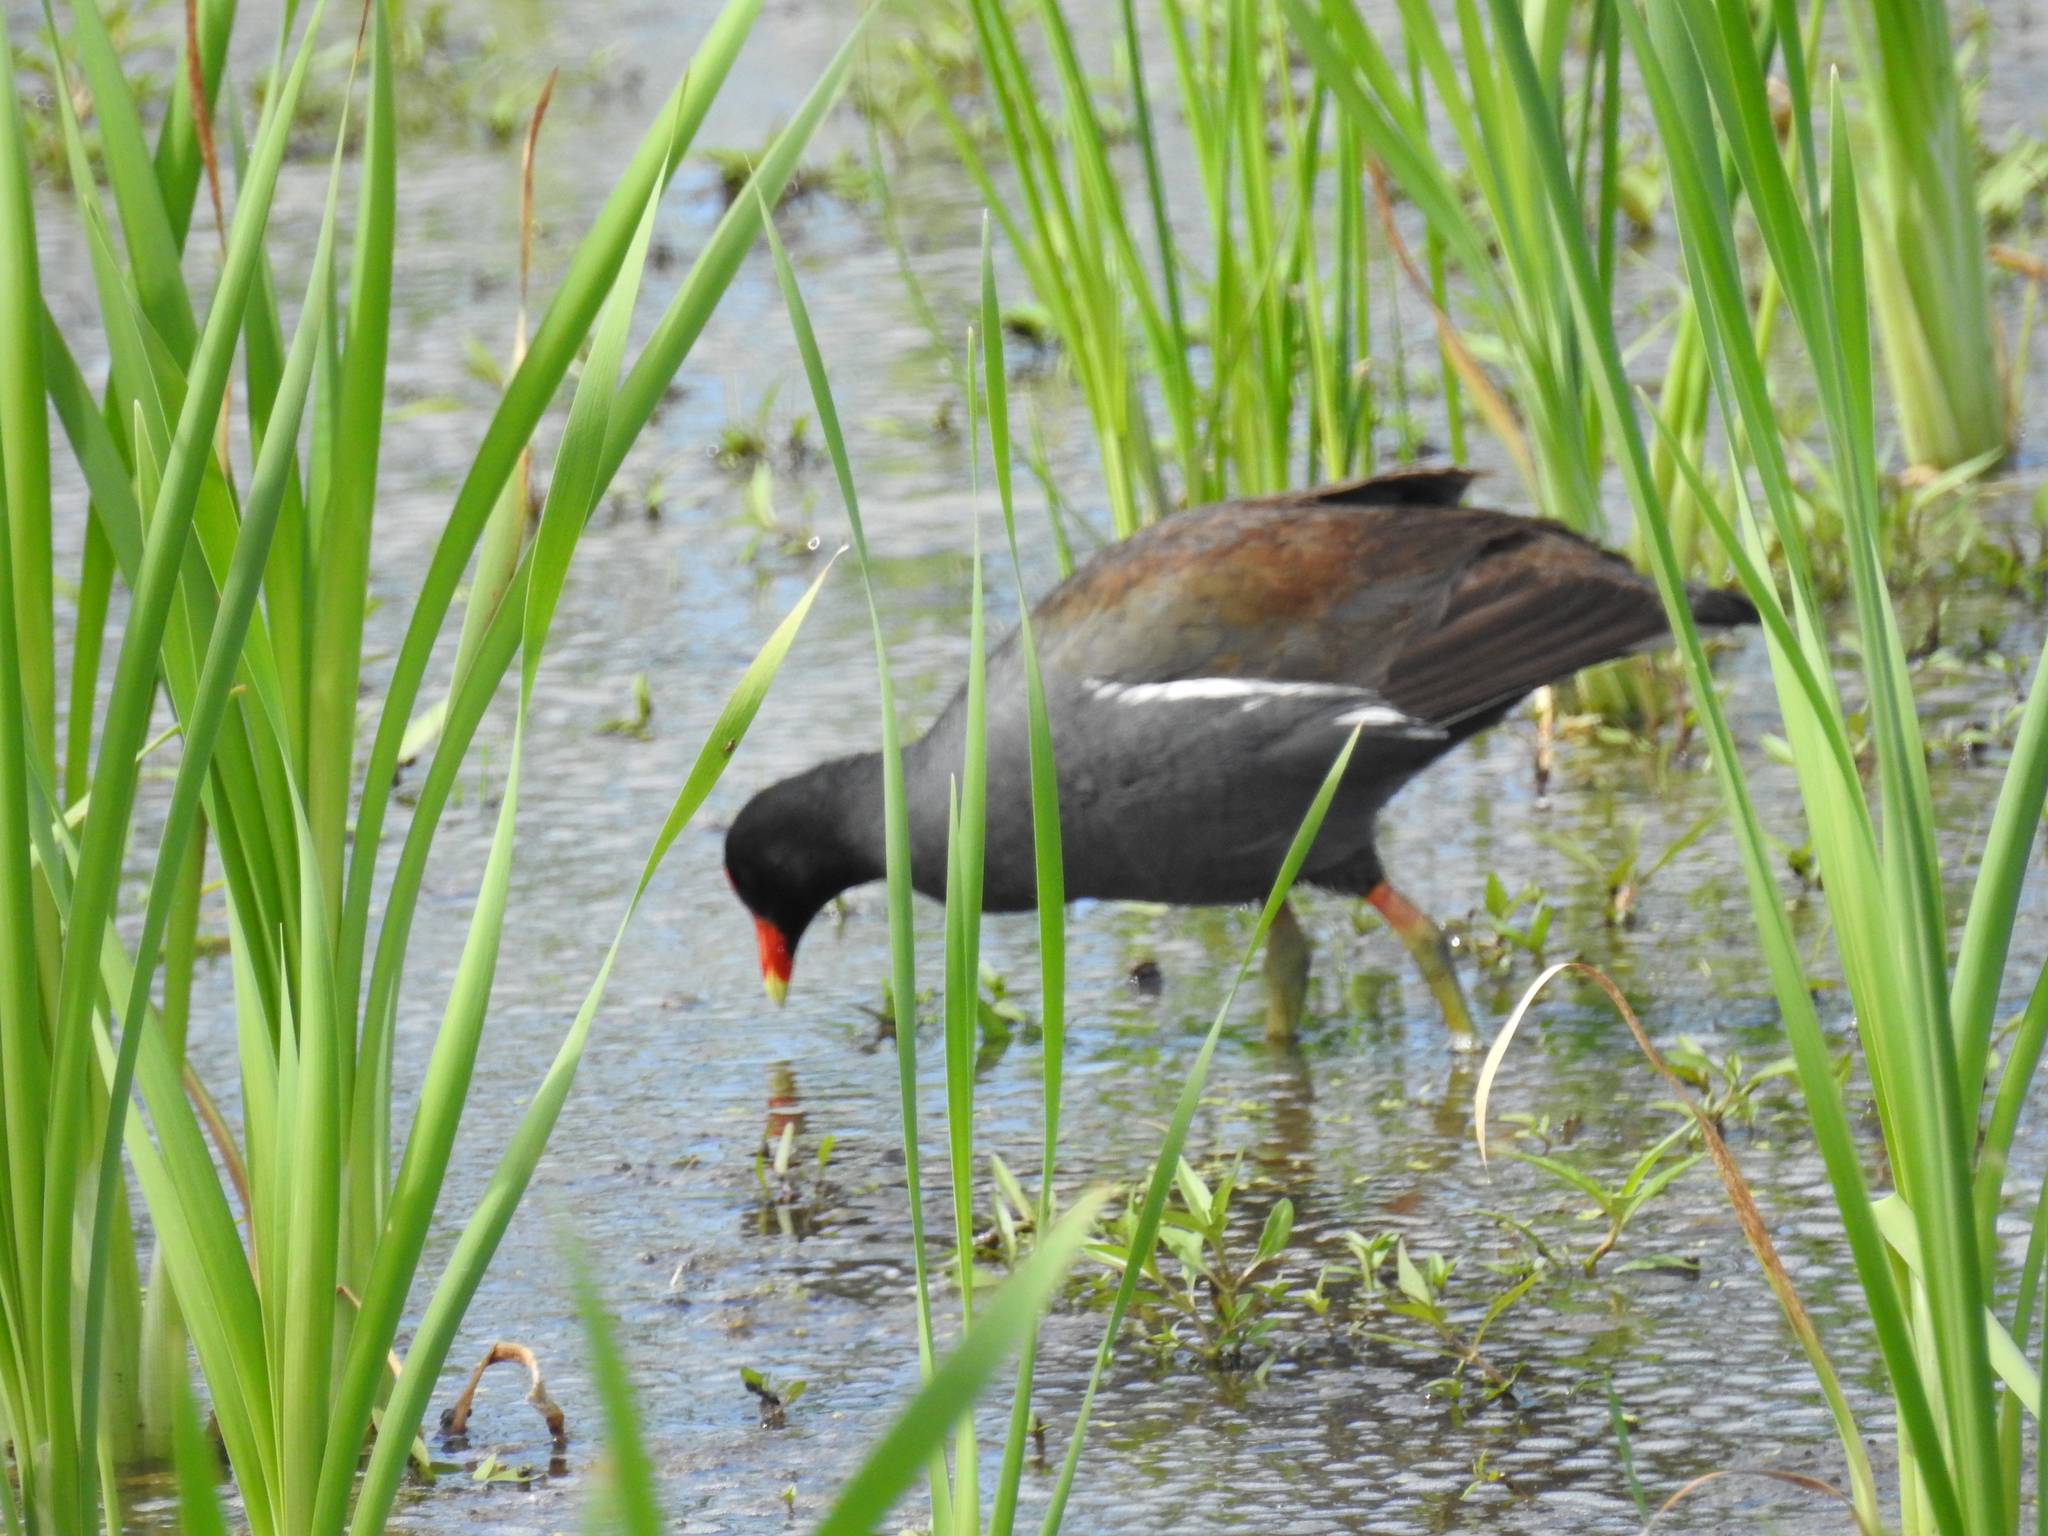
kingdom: Animalia
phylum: Chordata
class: Aves
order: Gruiformes
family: Rallidae
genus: Gallinula
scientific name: Gallinula chloropus
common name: Common moorhen
